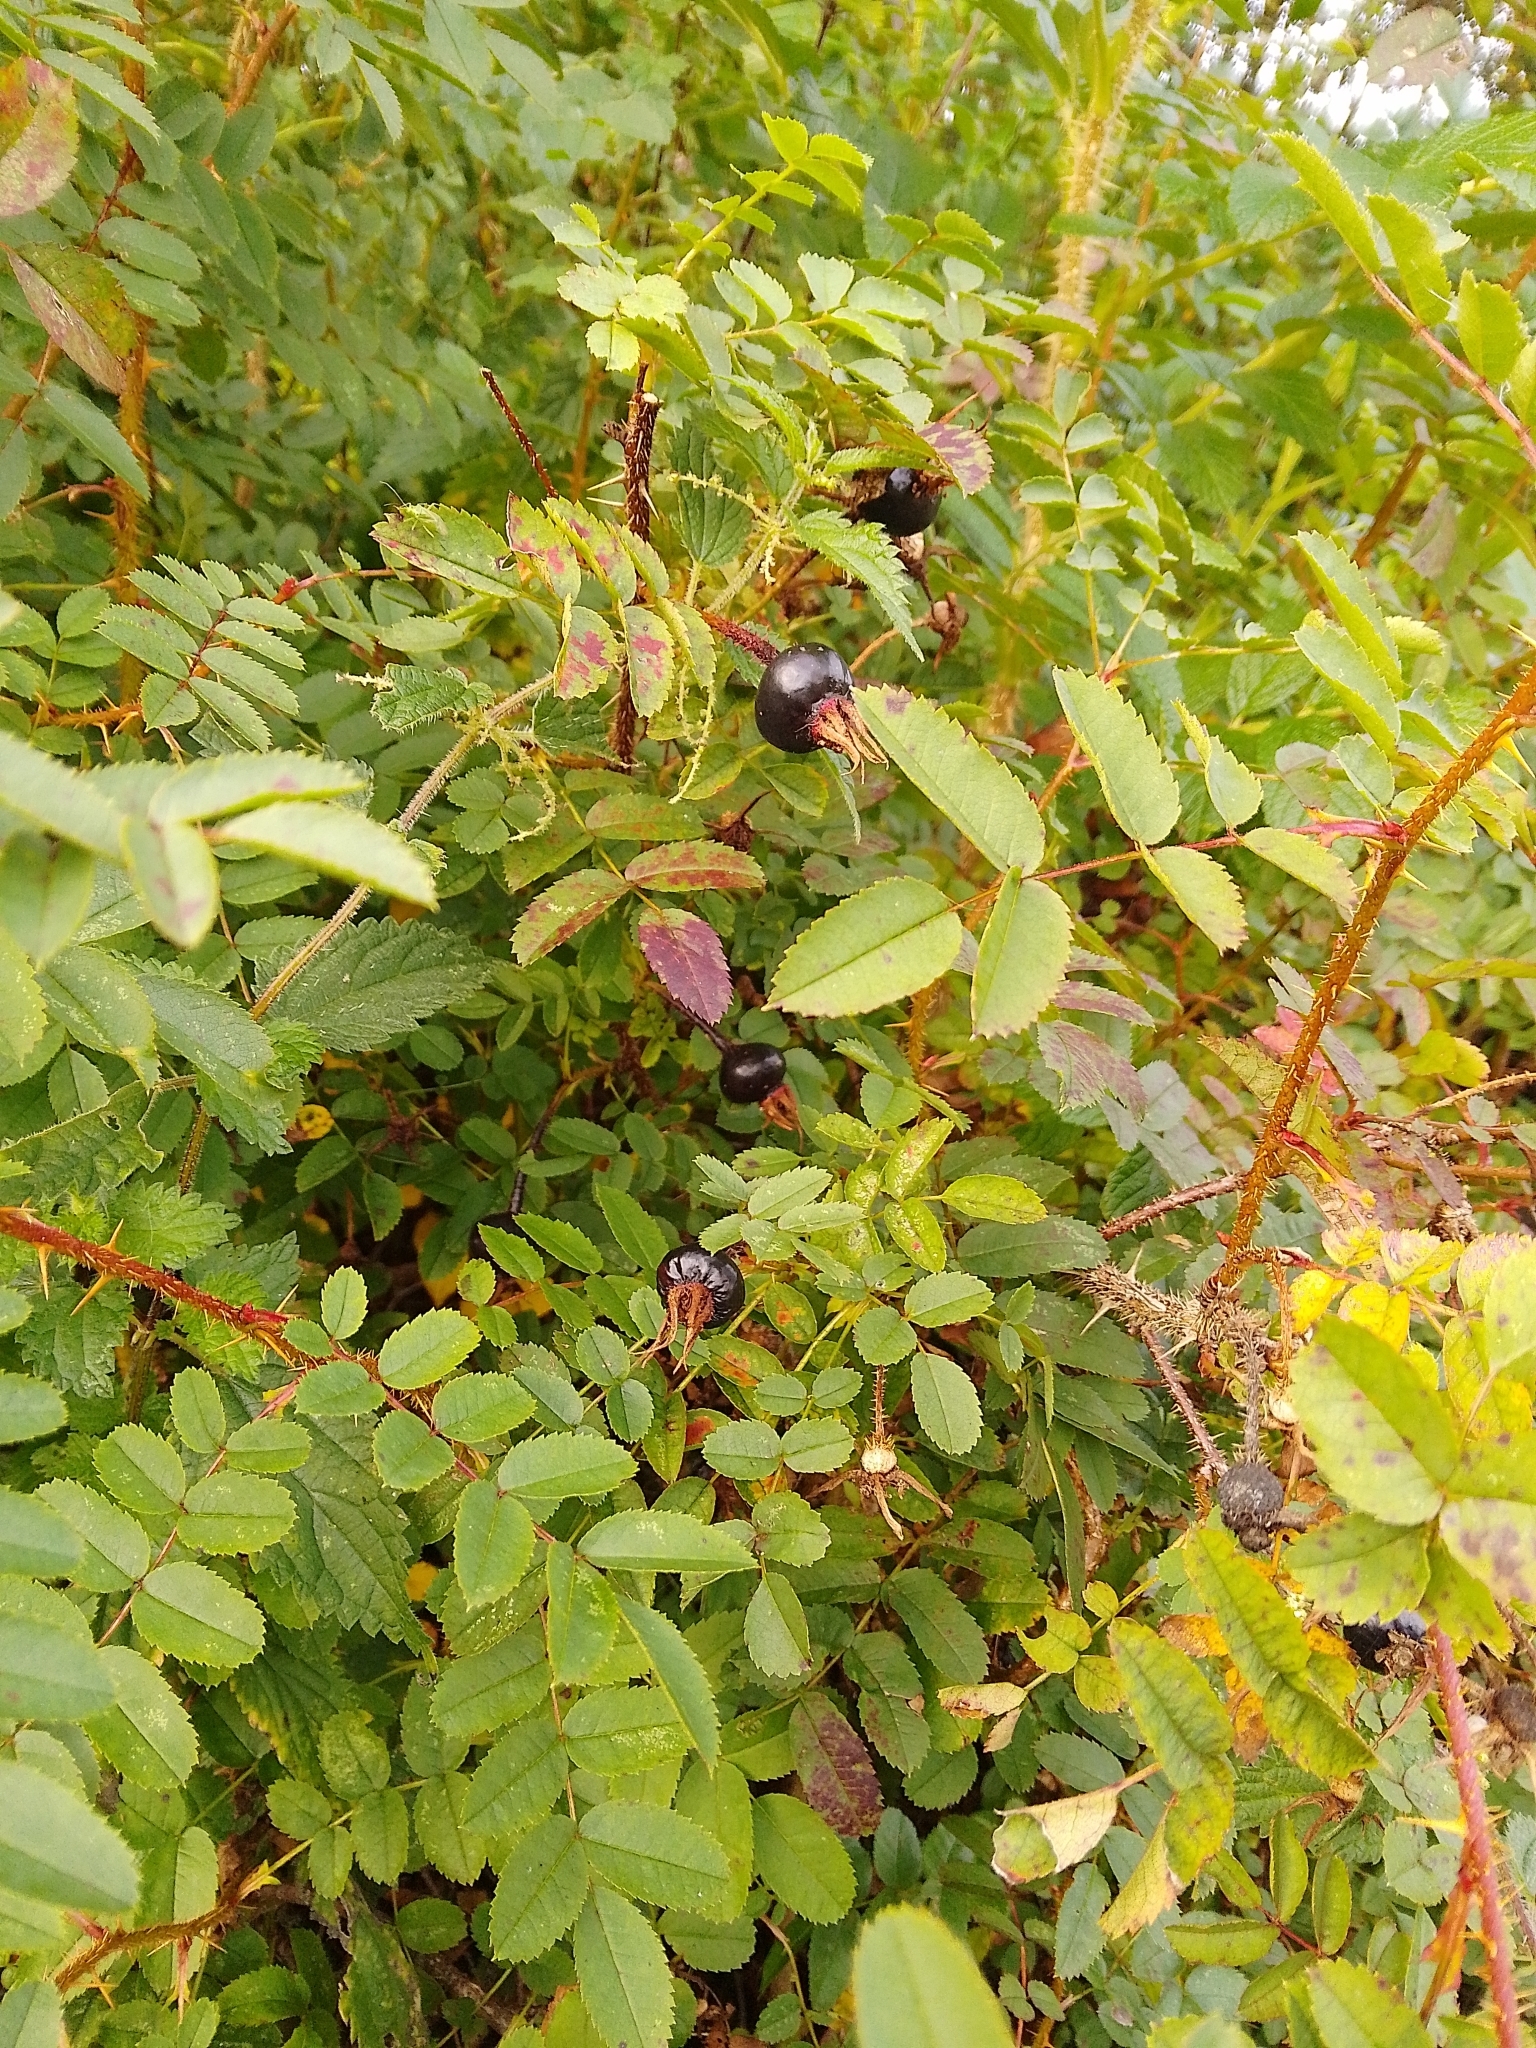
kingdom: Plantae
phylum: Tracheophyta
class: Magnoliopsida
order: Rosales
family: Rosaceae
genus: Rosa
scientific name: Rosa spinosissima
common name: Burnet rose
